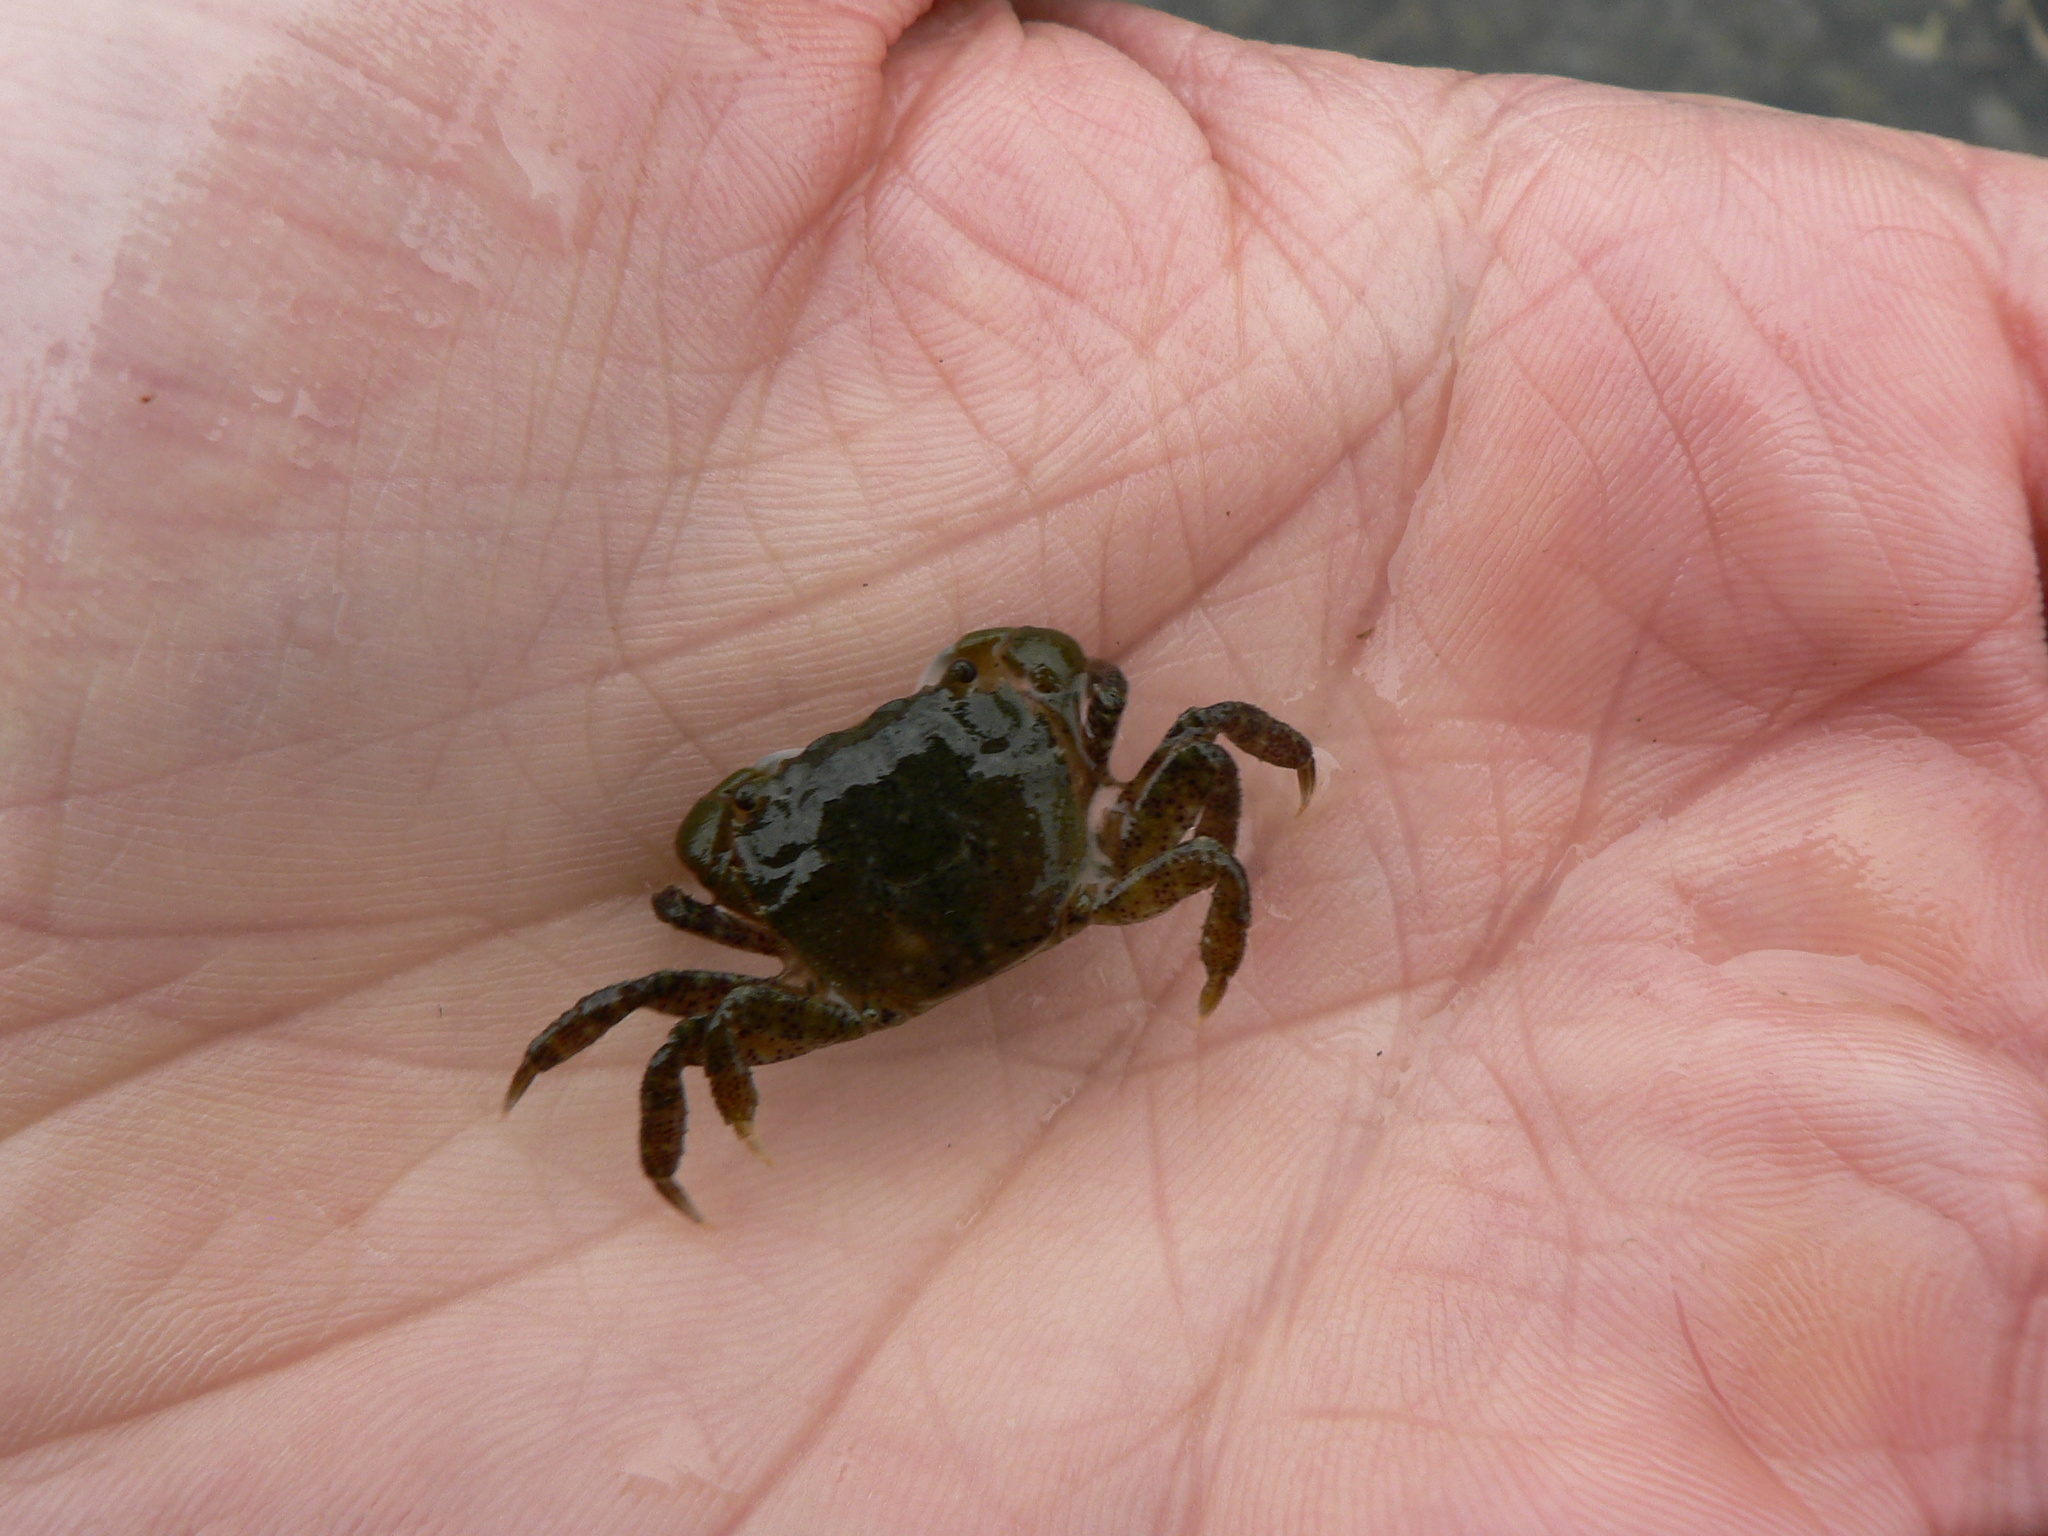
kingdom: Animalia
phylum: Arthropoda
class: Malacostraca
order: Decapoda
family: Varunidae
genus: Hemigrapsus
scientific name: Hemigrapsus oregonensis
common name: Yellow shore crab
